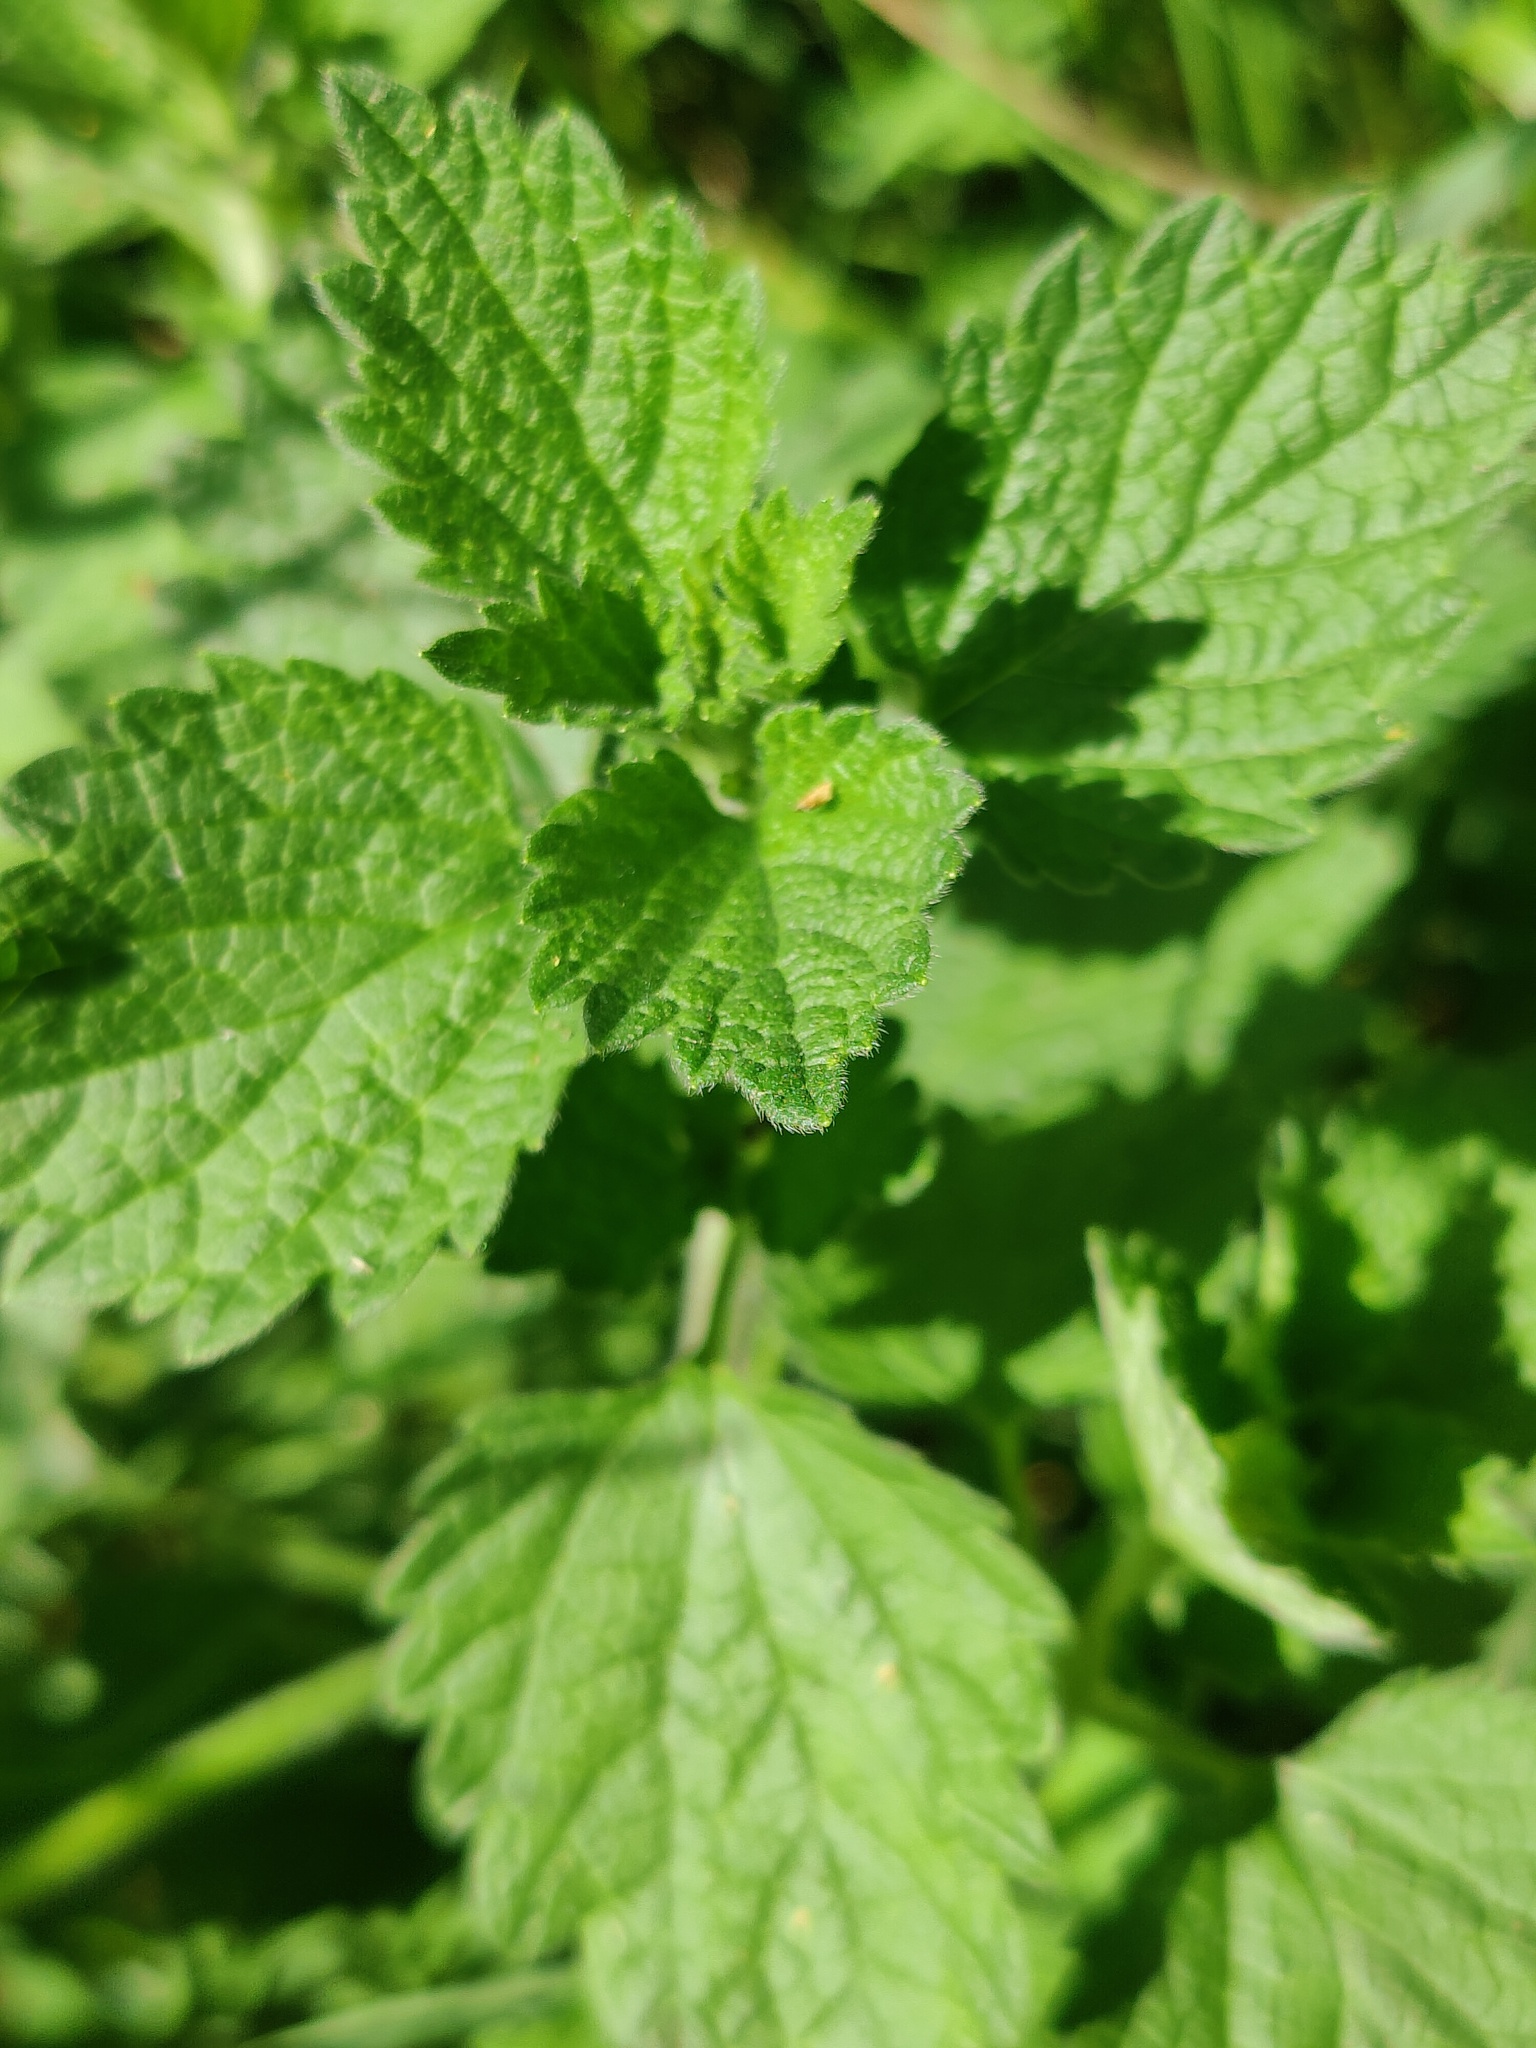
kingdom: Plantae
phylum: Tracheophyta
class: Magnoliopsida
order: Lamiales
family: Lamiaceae
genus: Ballota
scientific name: Ballota nigra
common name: Black horehound
